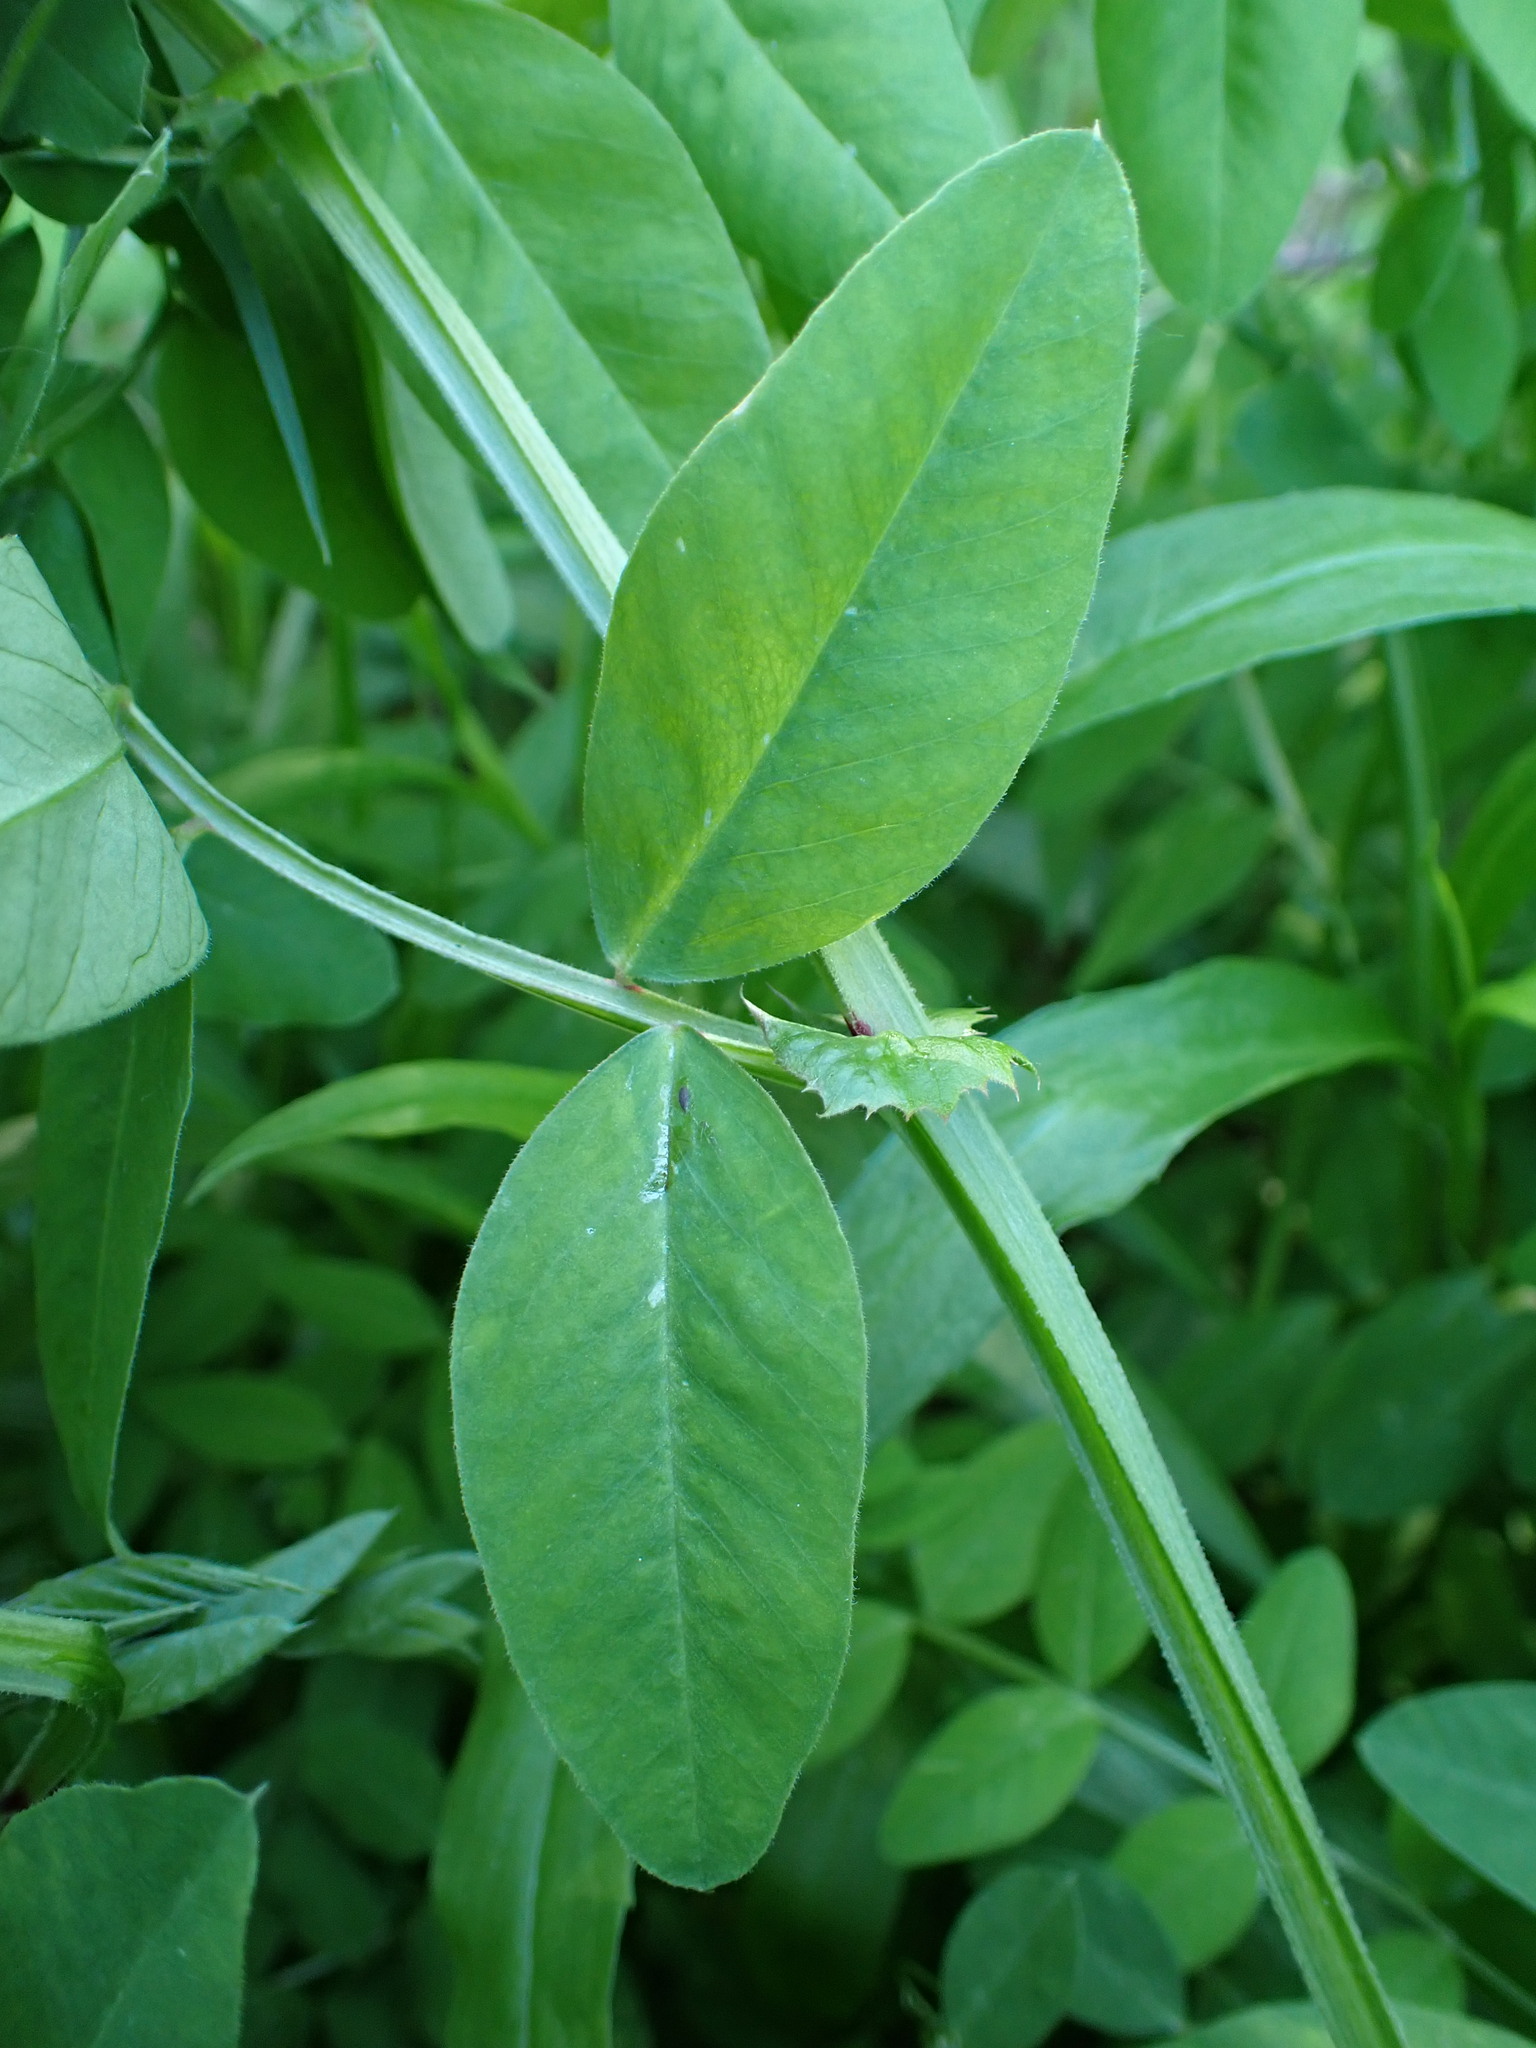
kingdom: Plantae
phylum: Tracheophyta
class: Magnoliopsida
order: Fabales
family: Fabaceae
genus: Vicia
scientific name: Vicia dumetorum
